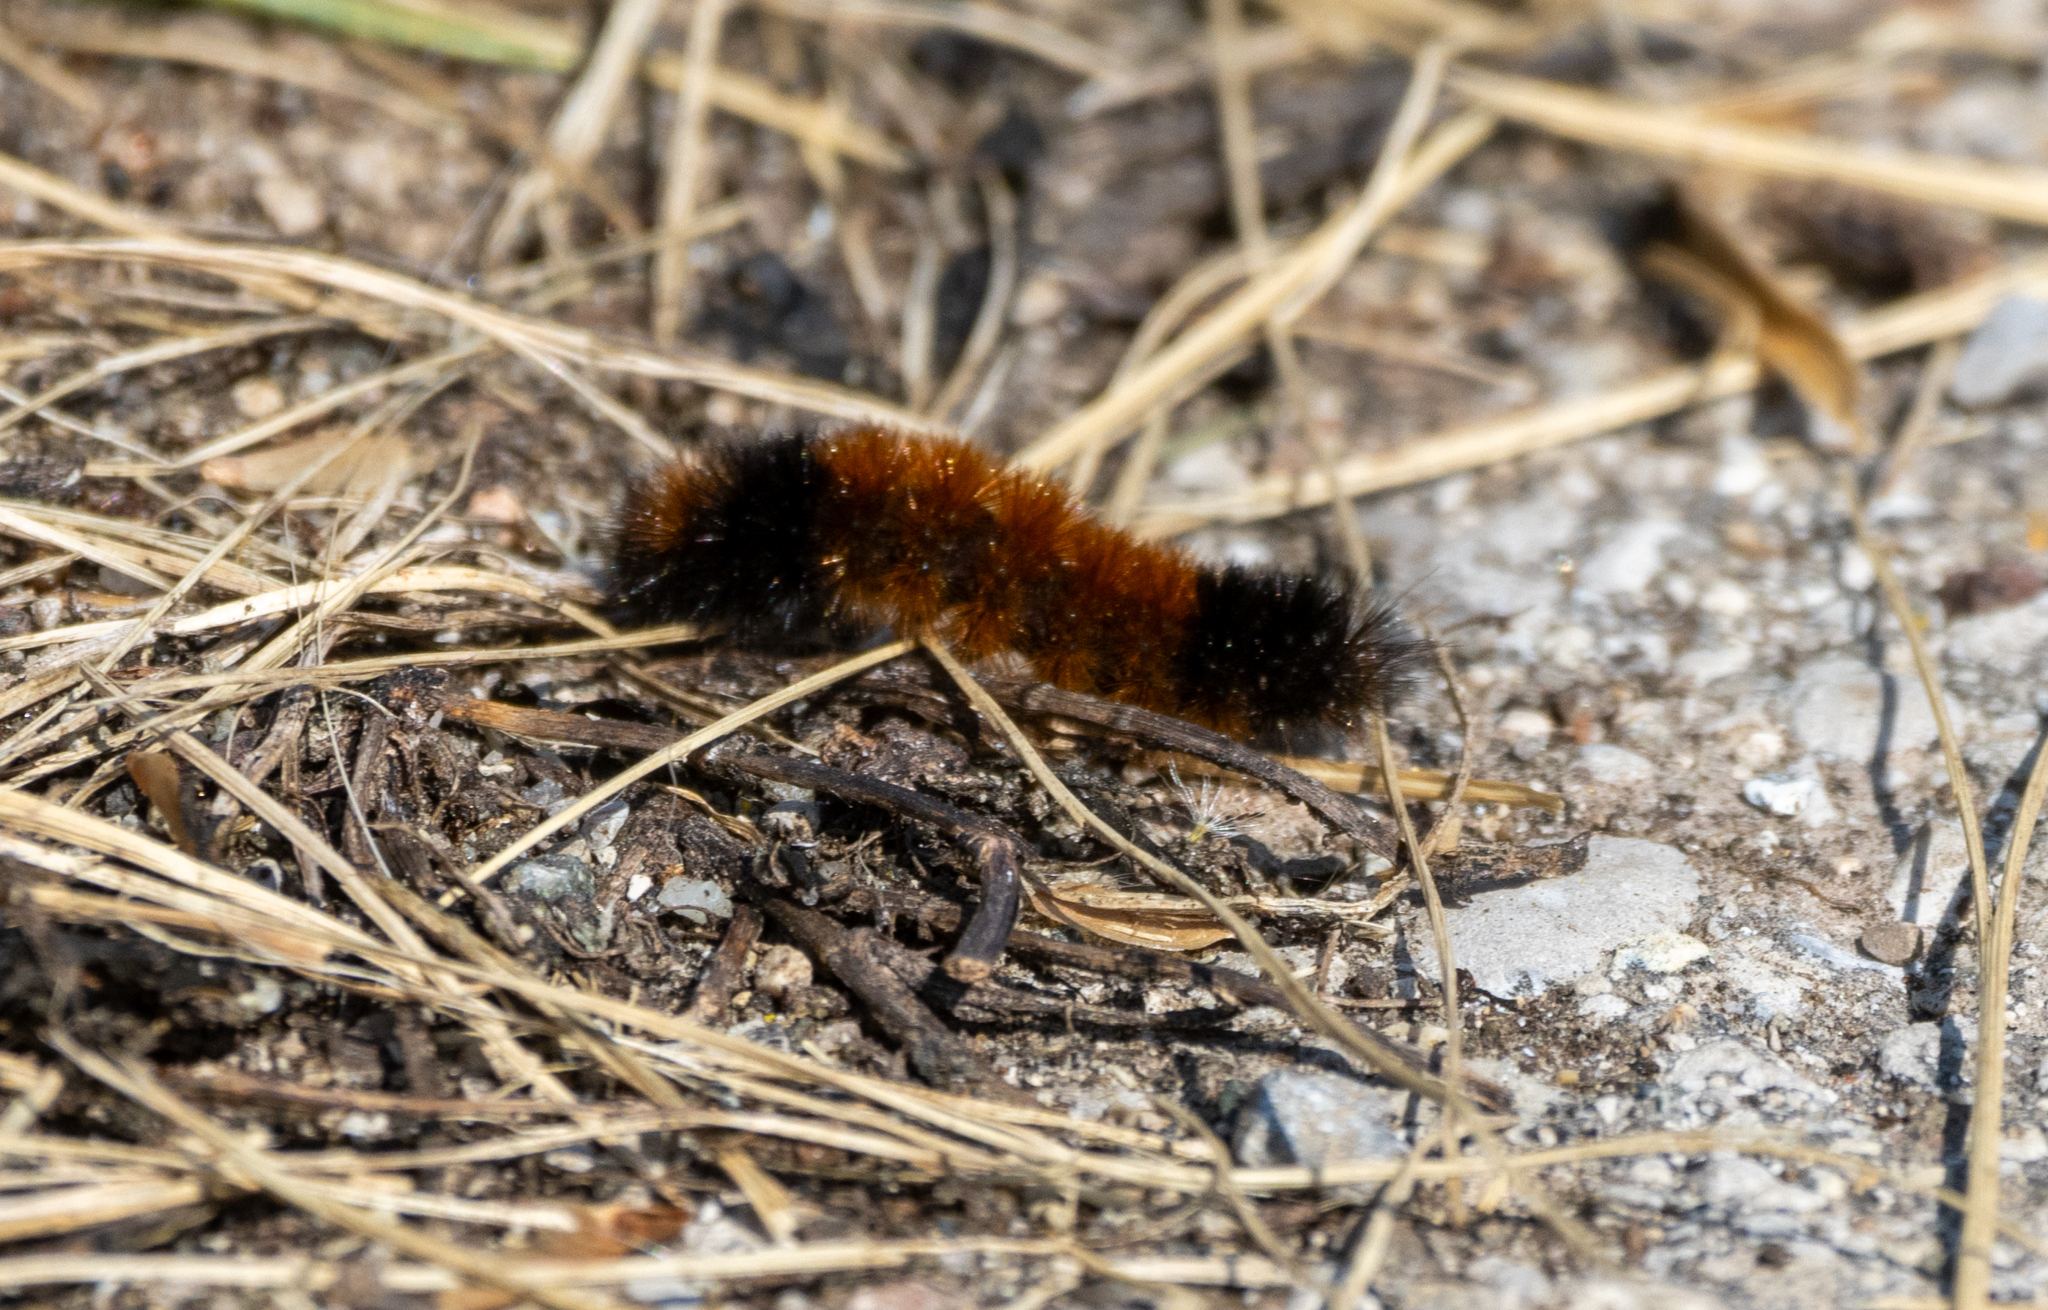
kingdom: Animalia
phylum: Arthropoda
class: Insecta
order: Lepidoptera
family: Erebidae
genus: Pyrrharctia
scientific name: Pyrrharctia isabella
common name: Isabella tiger moth
